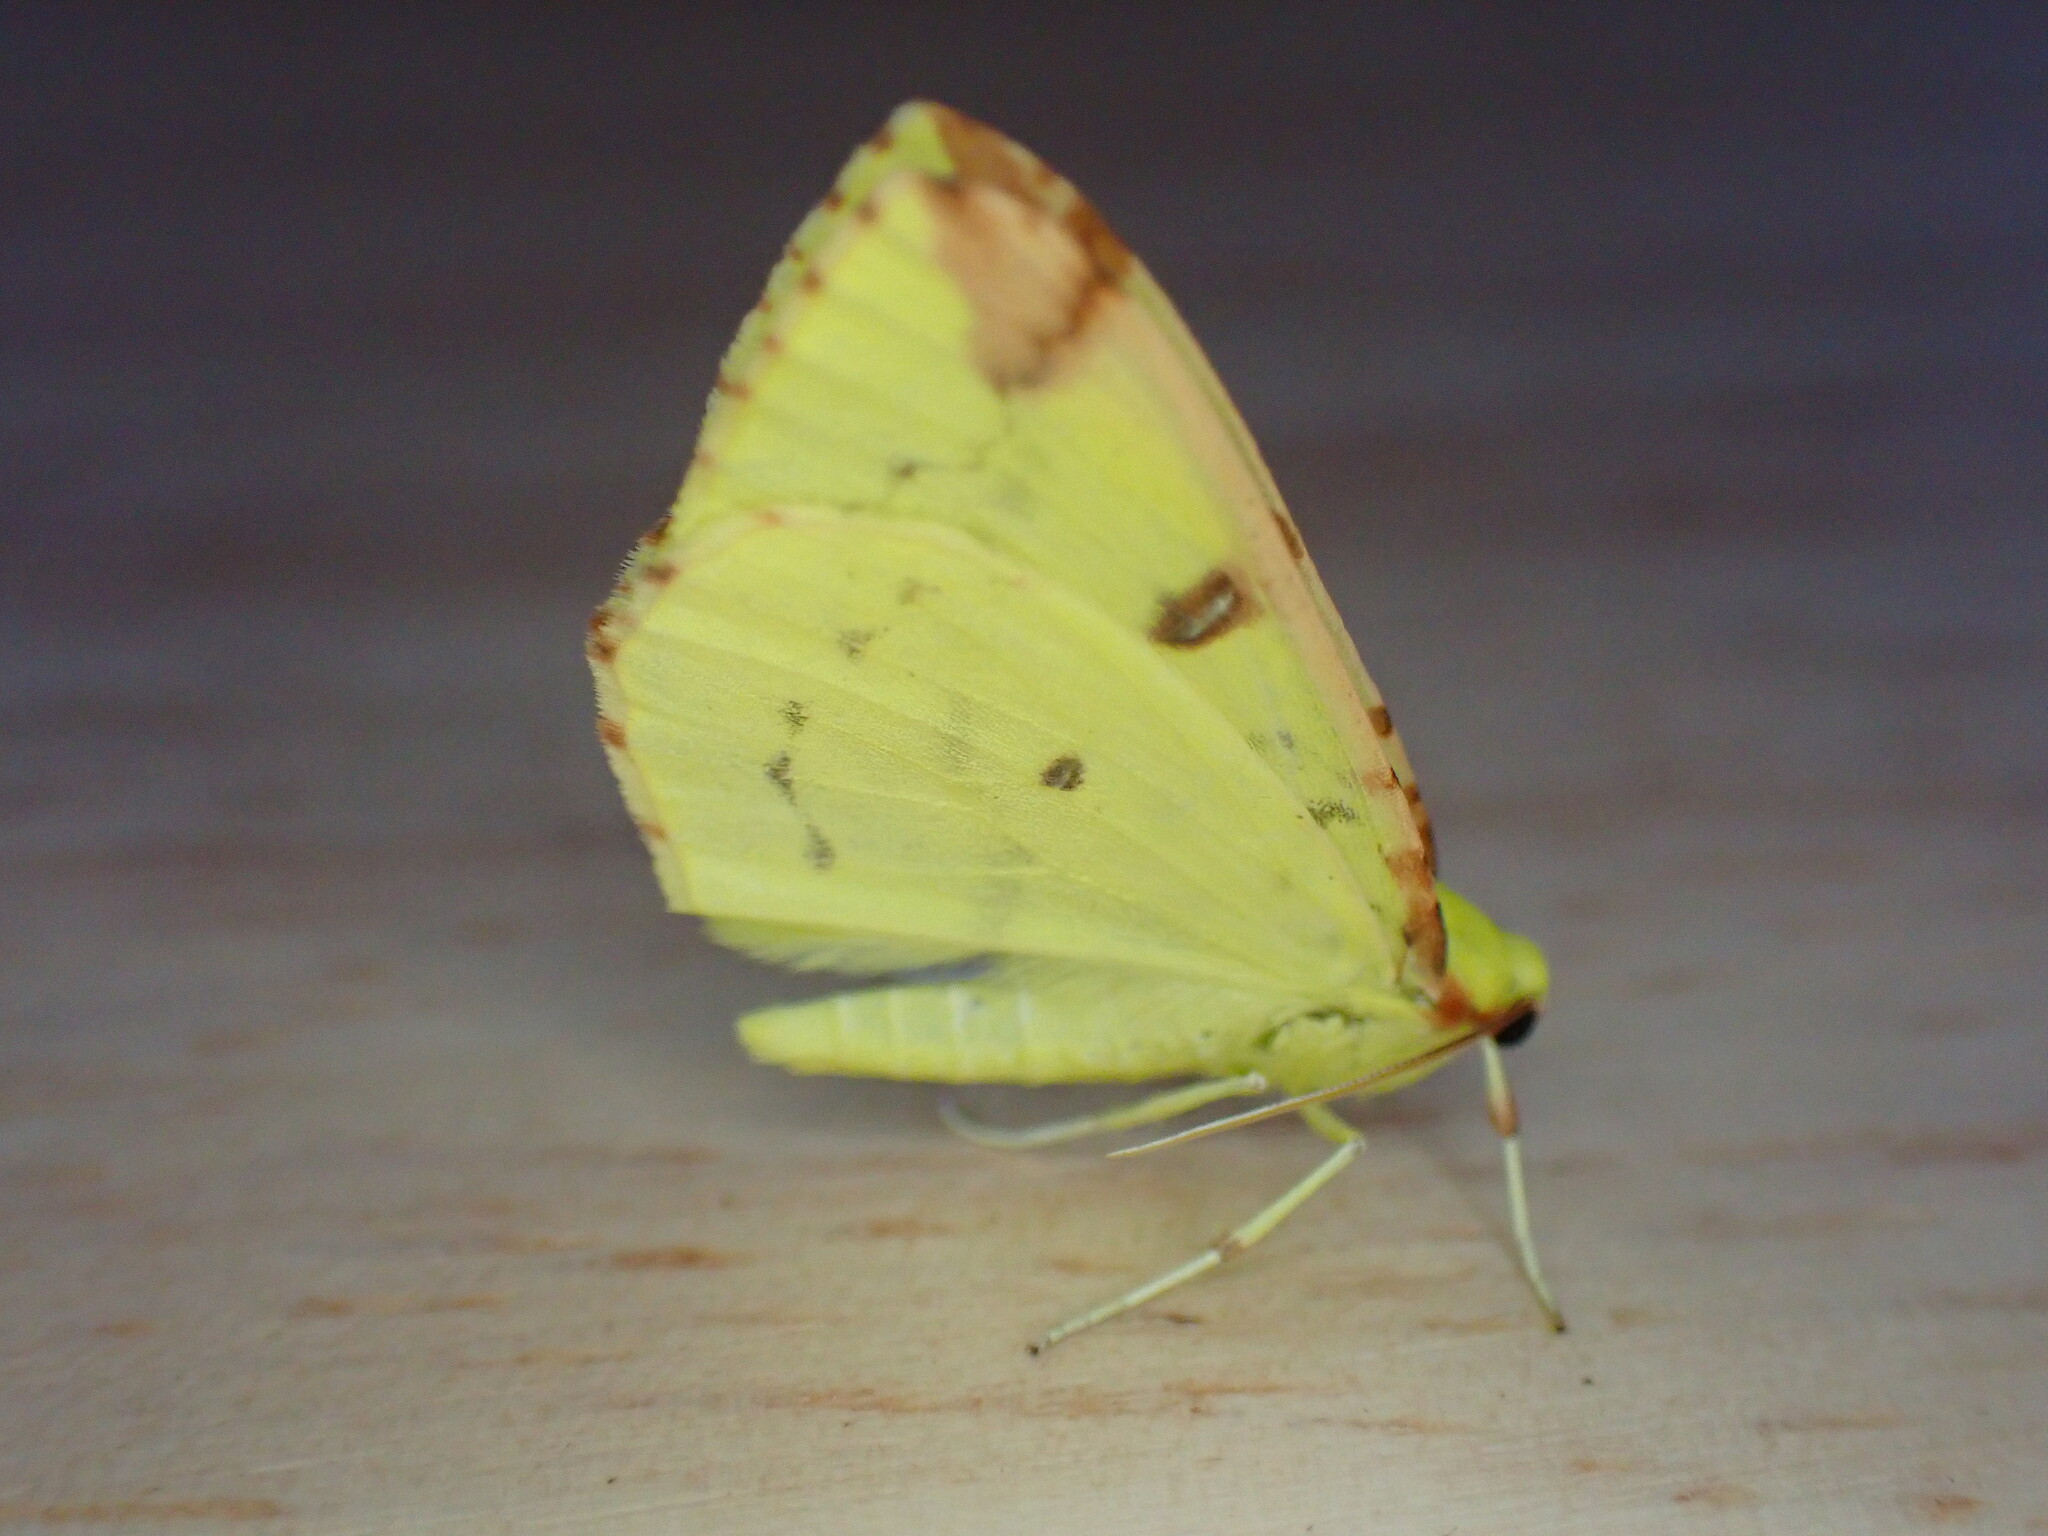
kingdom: Animalia
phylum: Arthropoda
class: Insecta
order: Lepidoptera
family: Geometridae
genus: Opisthograptis
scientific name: Opisthograptis luteolata
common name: Brimstone moth
